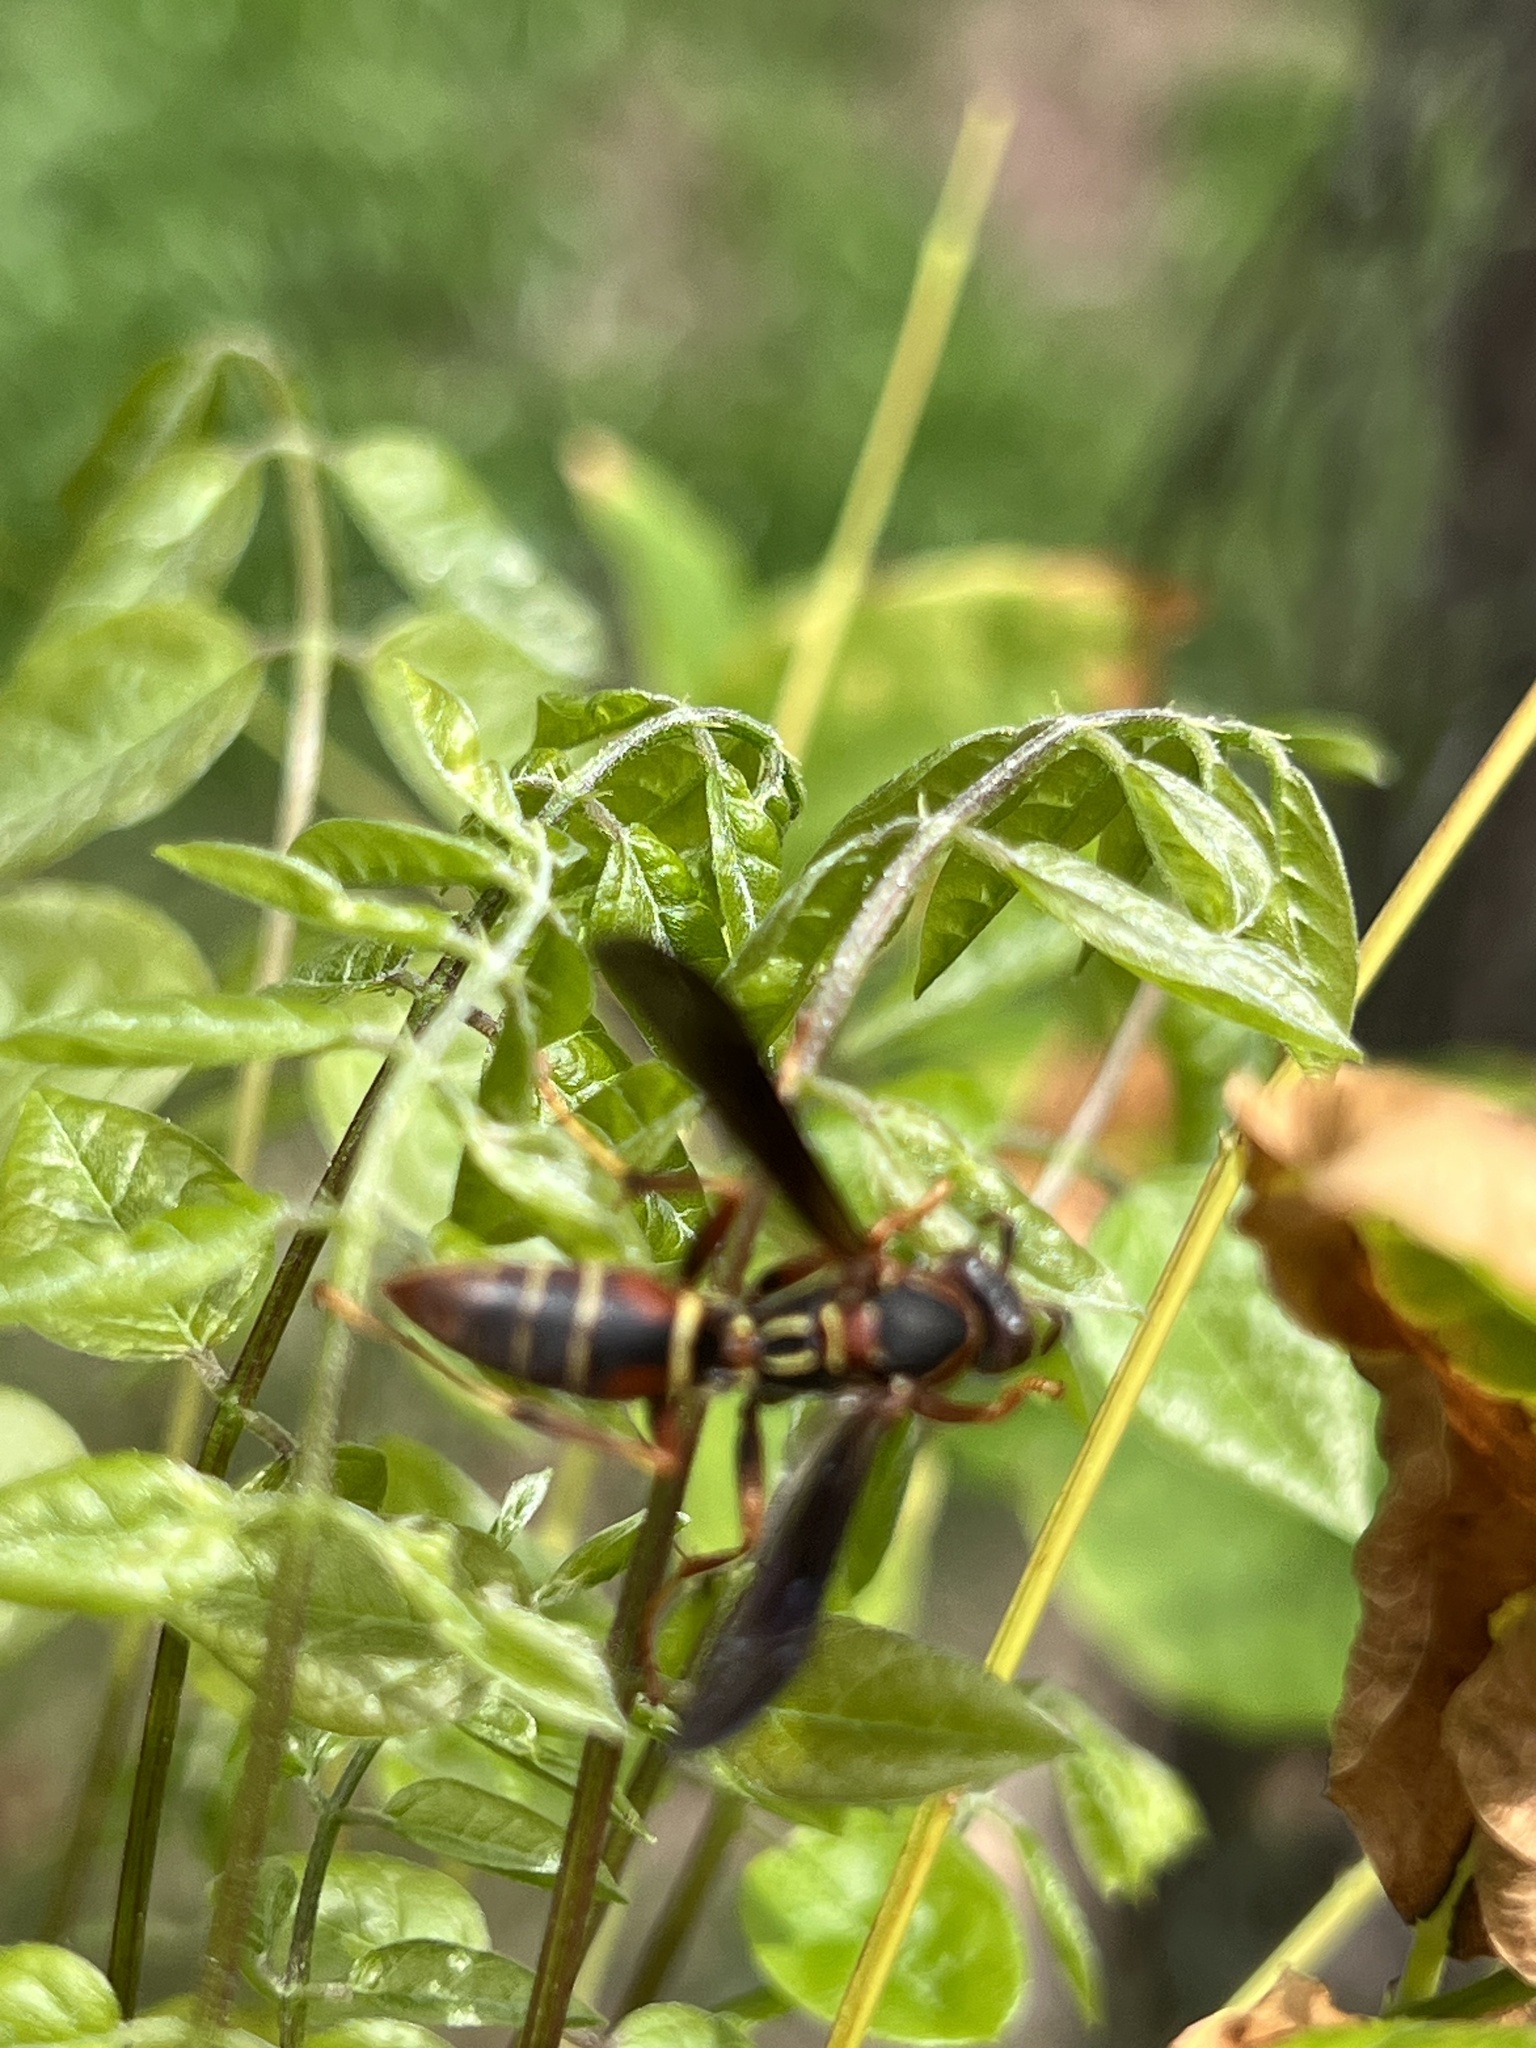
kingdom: Animalia
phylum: Arthropoda
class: Insecta
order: Hymenoptera
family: Eumenidae
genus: Polistes
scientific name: Polistes fuscatus
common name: Dark paper wasp
